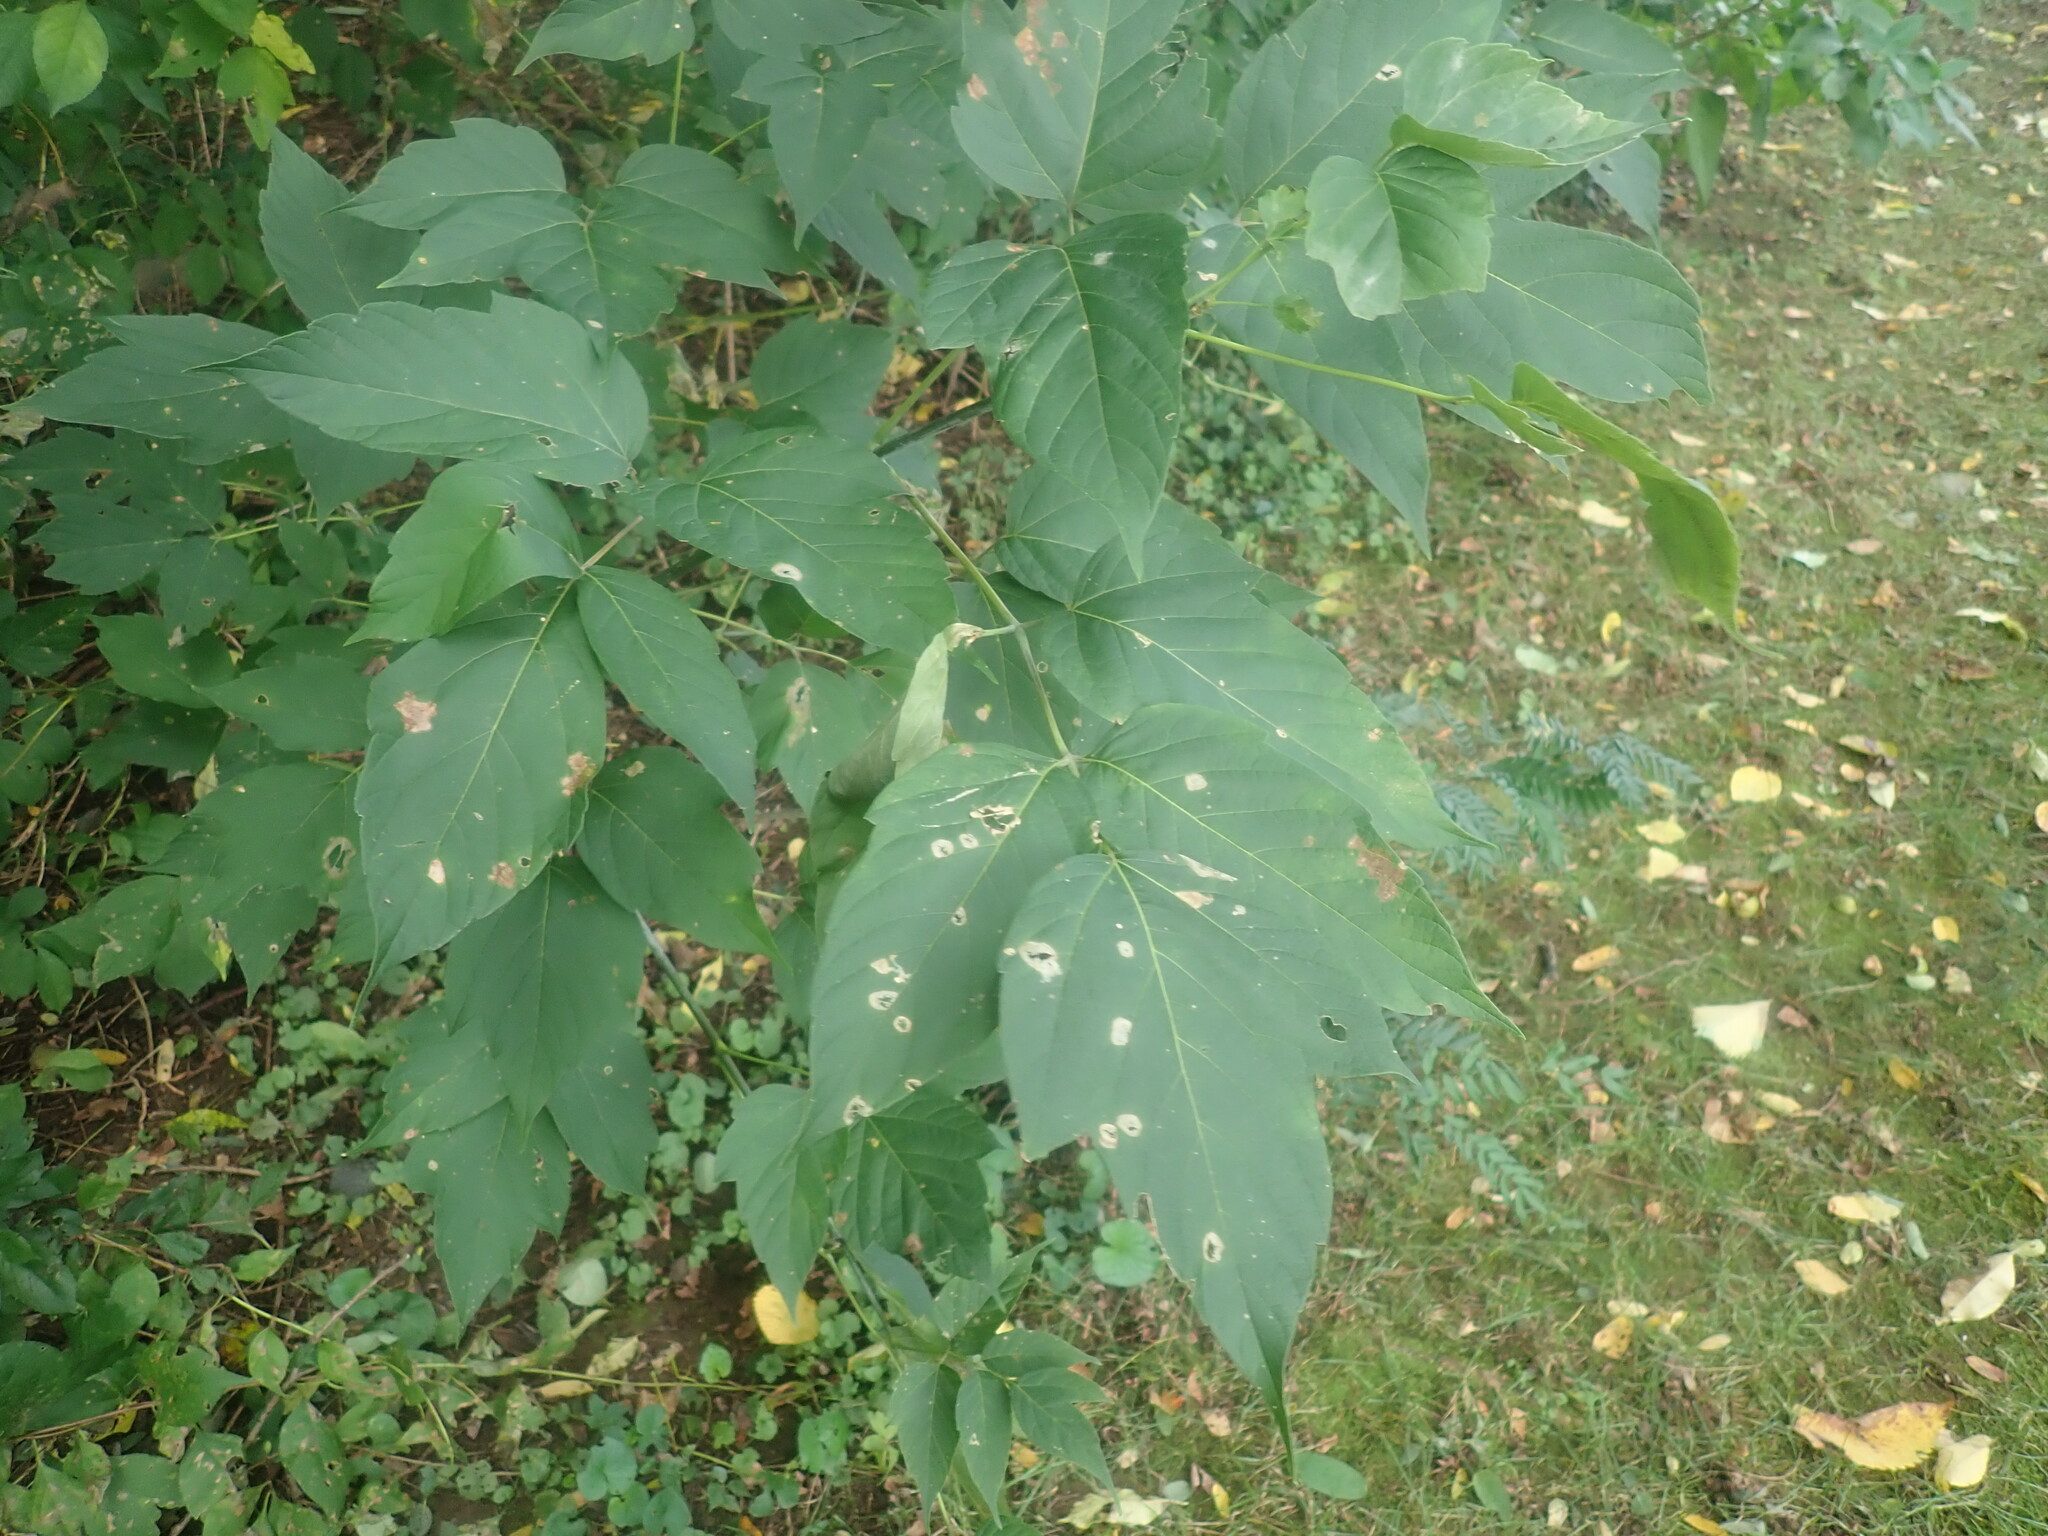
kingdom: Plantae
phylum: Tracheophyta
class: Magnoliopsida
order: Sapindales
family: Sapindaceae
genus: Acer
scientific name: Acer negundo
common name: Ashleaf maple
